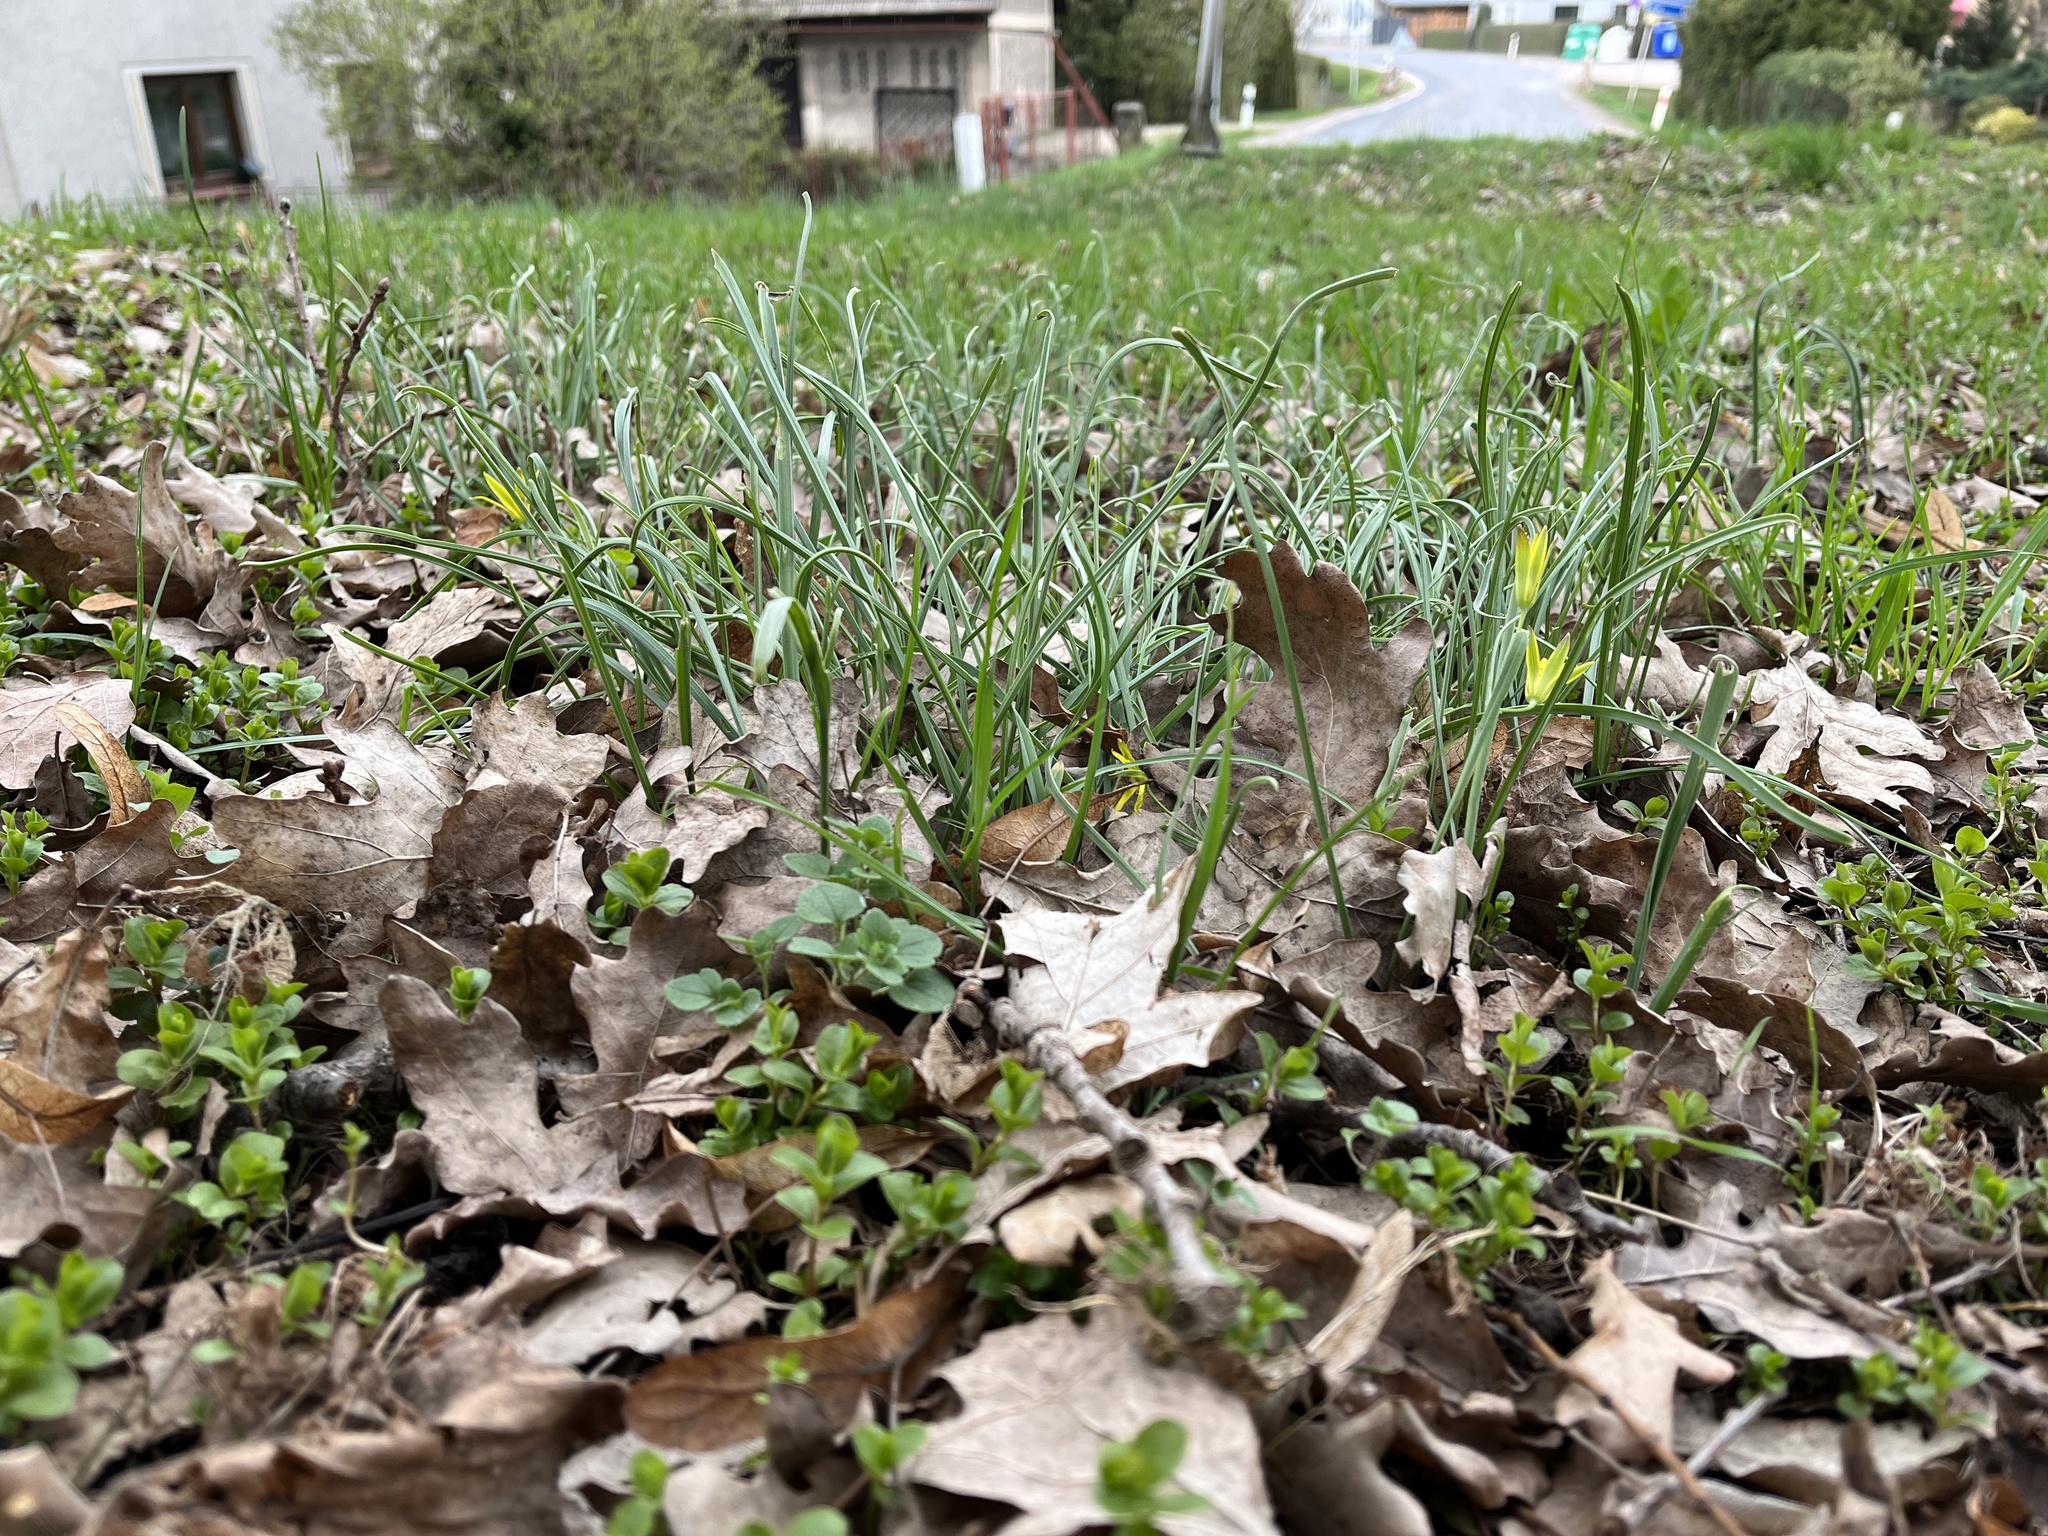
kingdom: Plantae
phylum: Tracheophyta
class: Liliopsida
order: Liliales
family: Liliaceae
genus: Gagea
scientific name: Gagea pratensis
